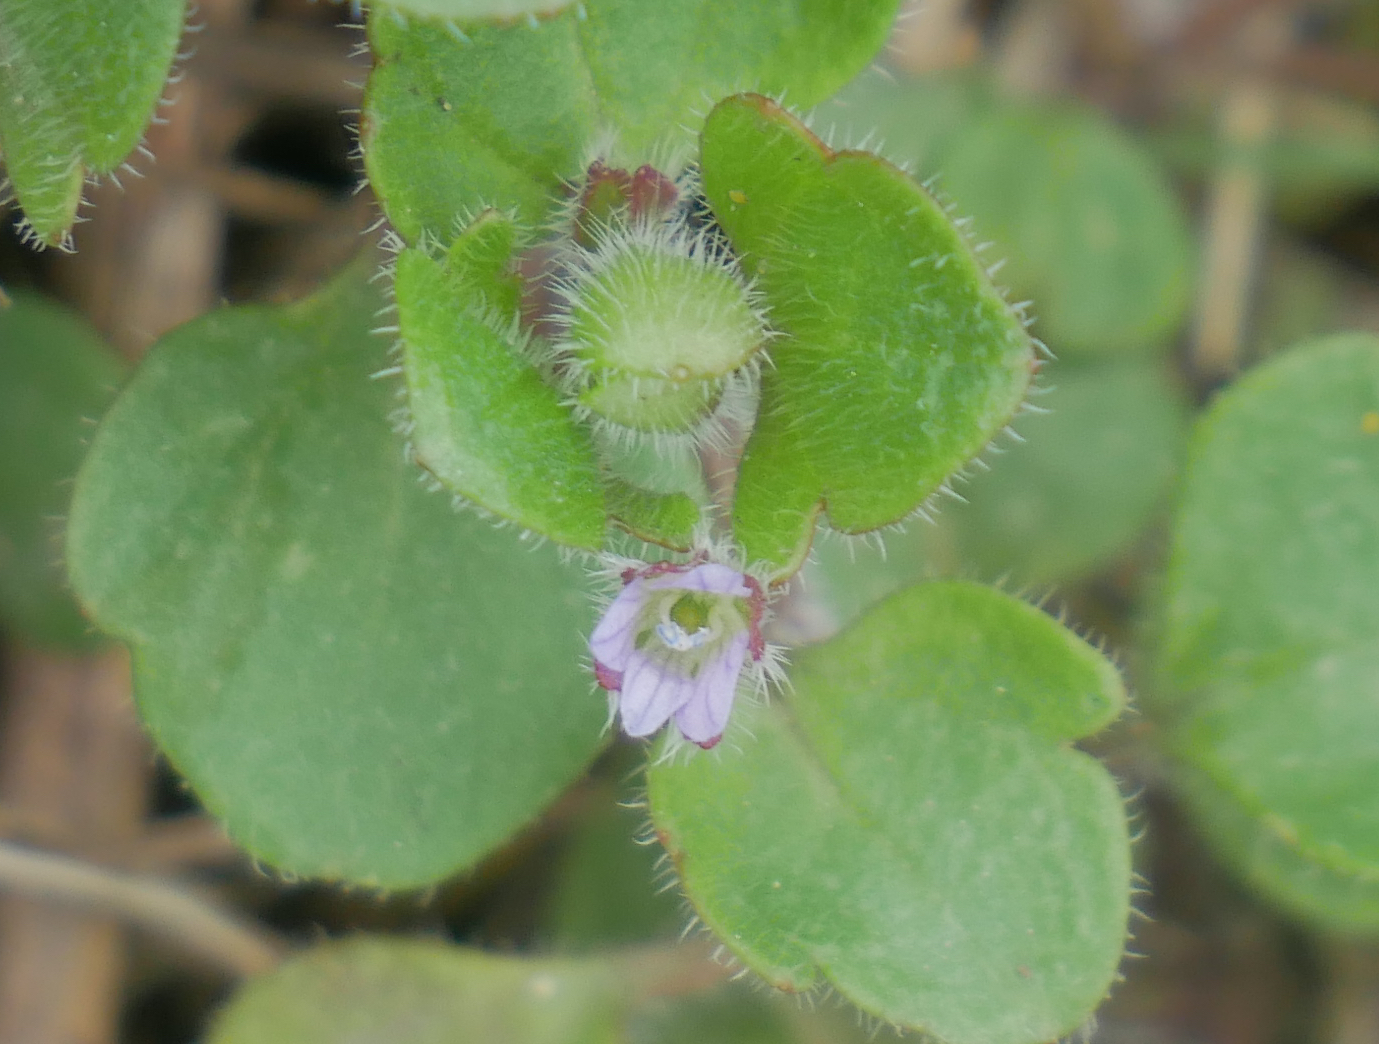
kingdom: Plantae
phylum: Tracheophyta
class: Magnoliopsida
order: Lamiales
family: Plantaginaceae
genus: Veronica
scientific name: Veronica sublobata
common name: False ivy-leaved speedwell
